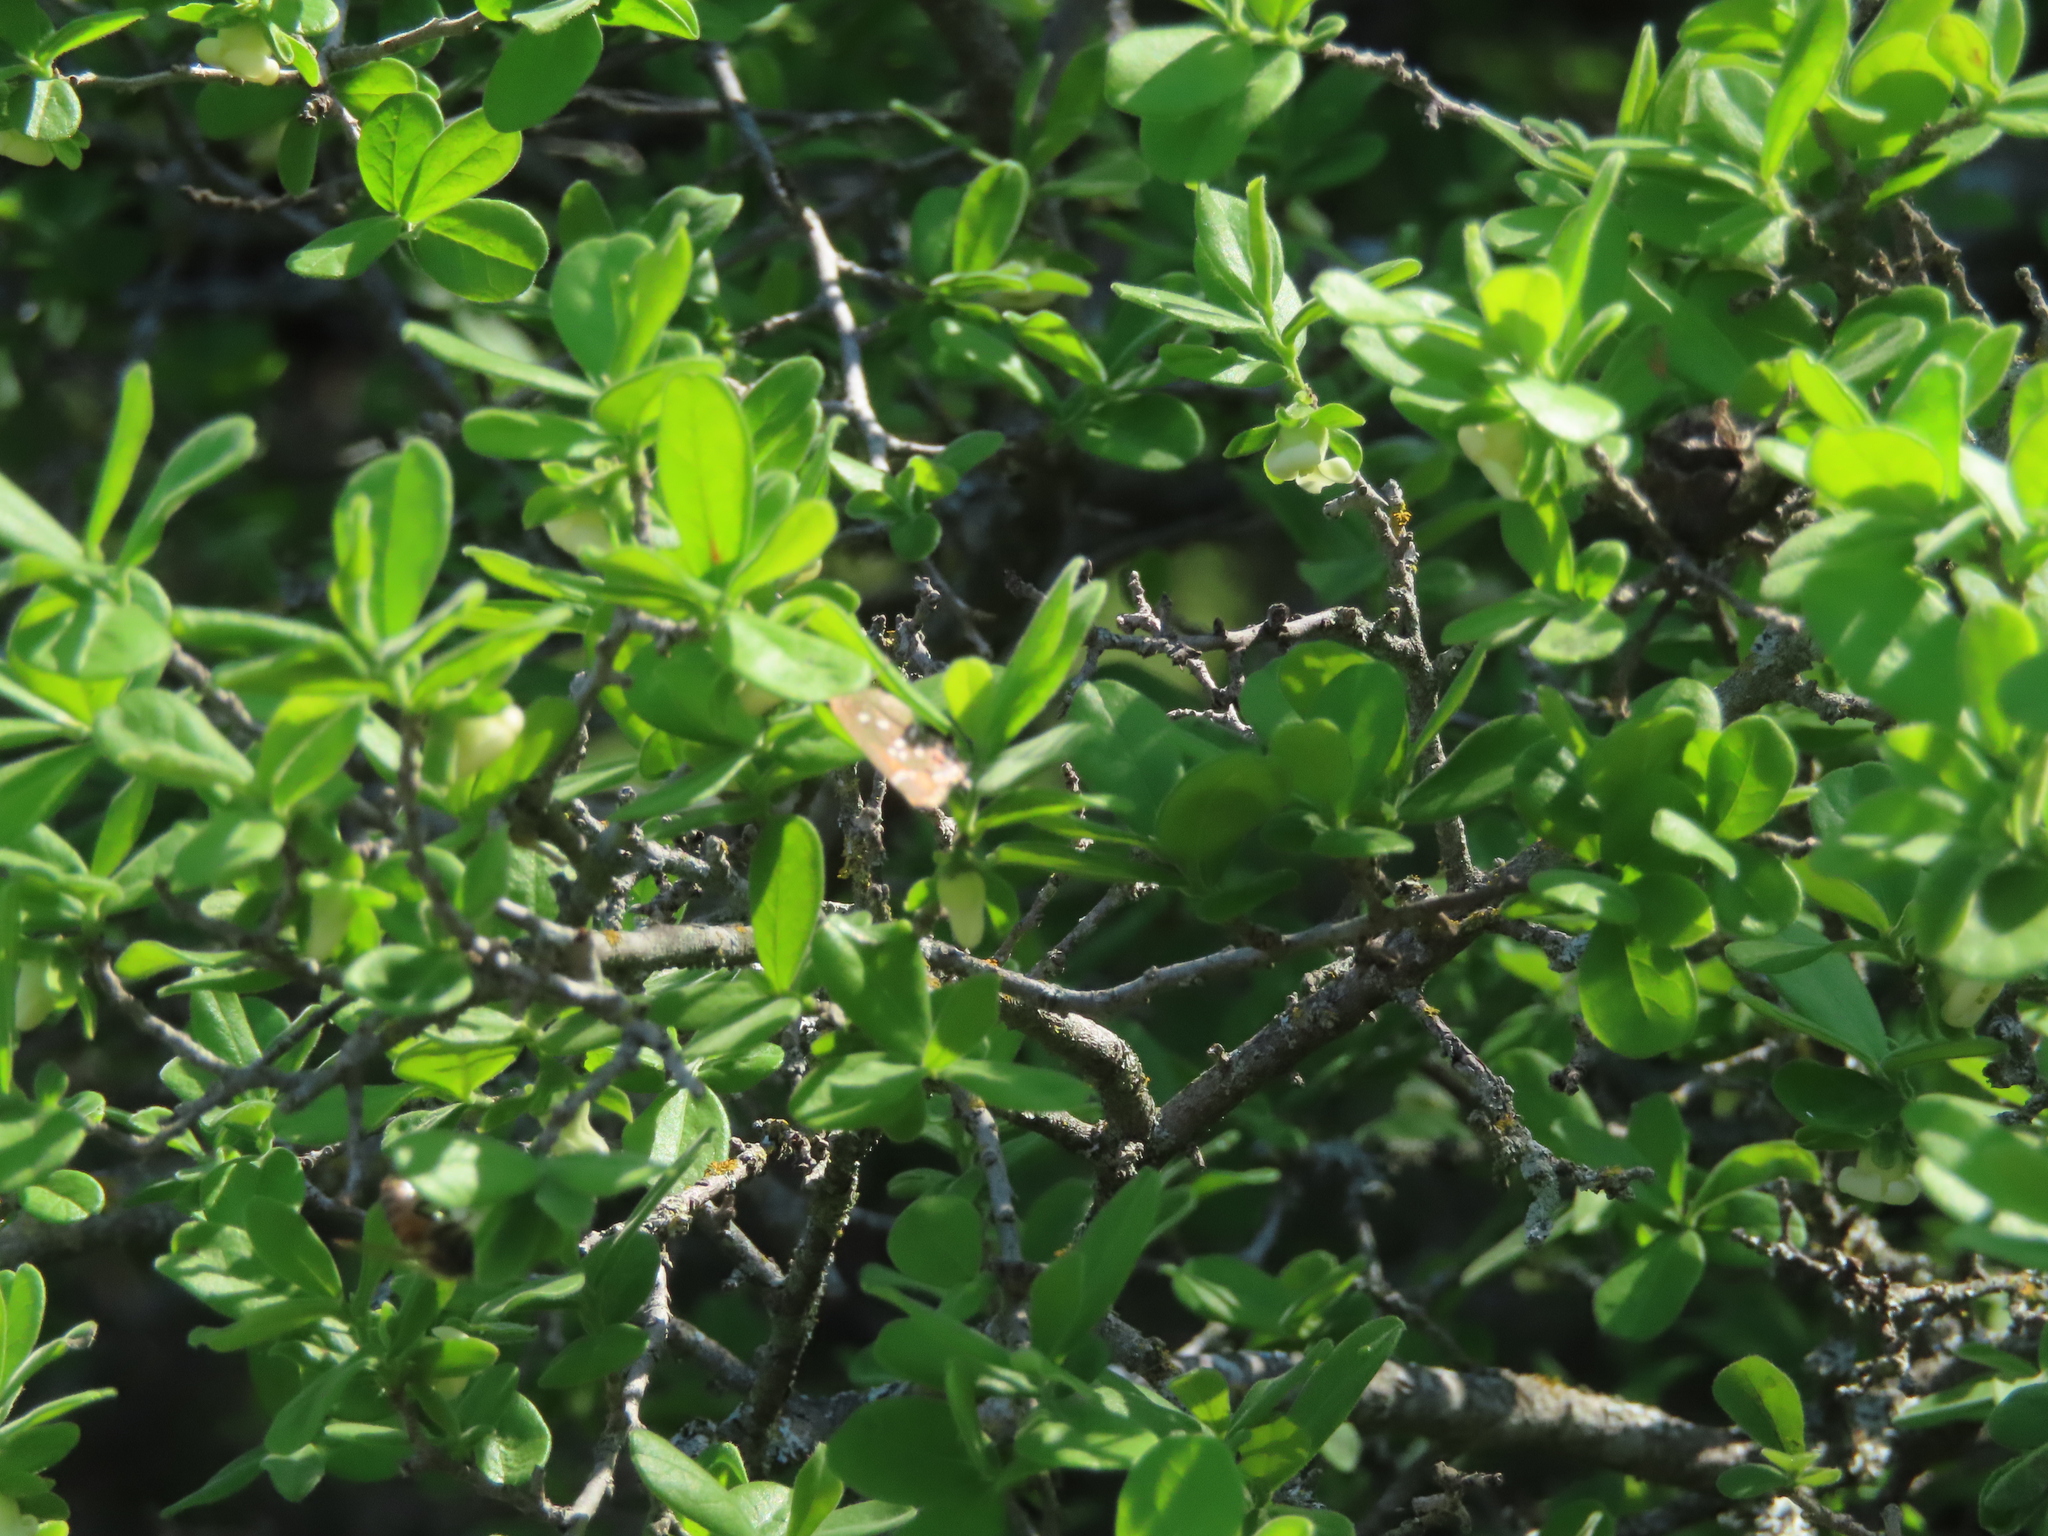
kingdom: Plantae
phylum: Tracheophyta
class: Magnoliopsida
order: Ericales
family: Ebenaceae
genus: Diospyros
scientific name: Diospyros texana
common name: Texas persimmon
